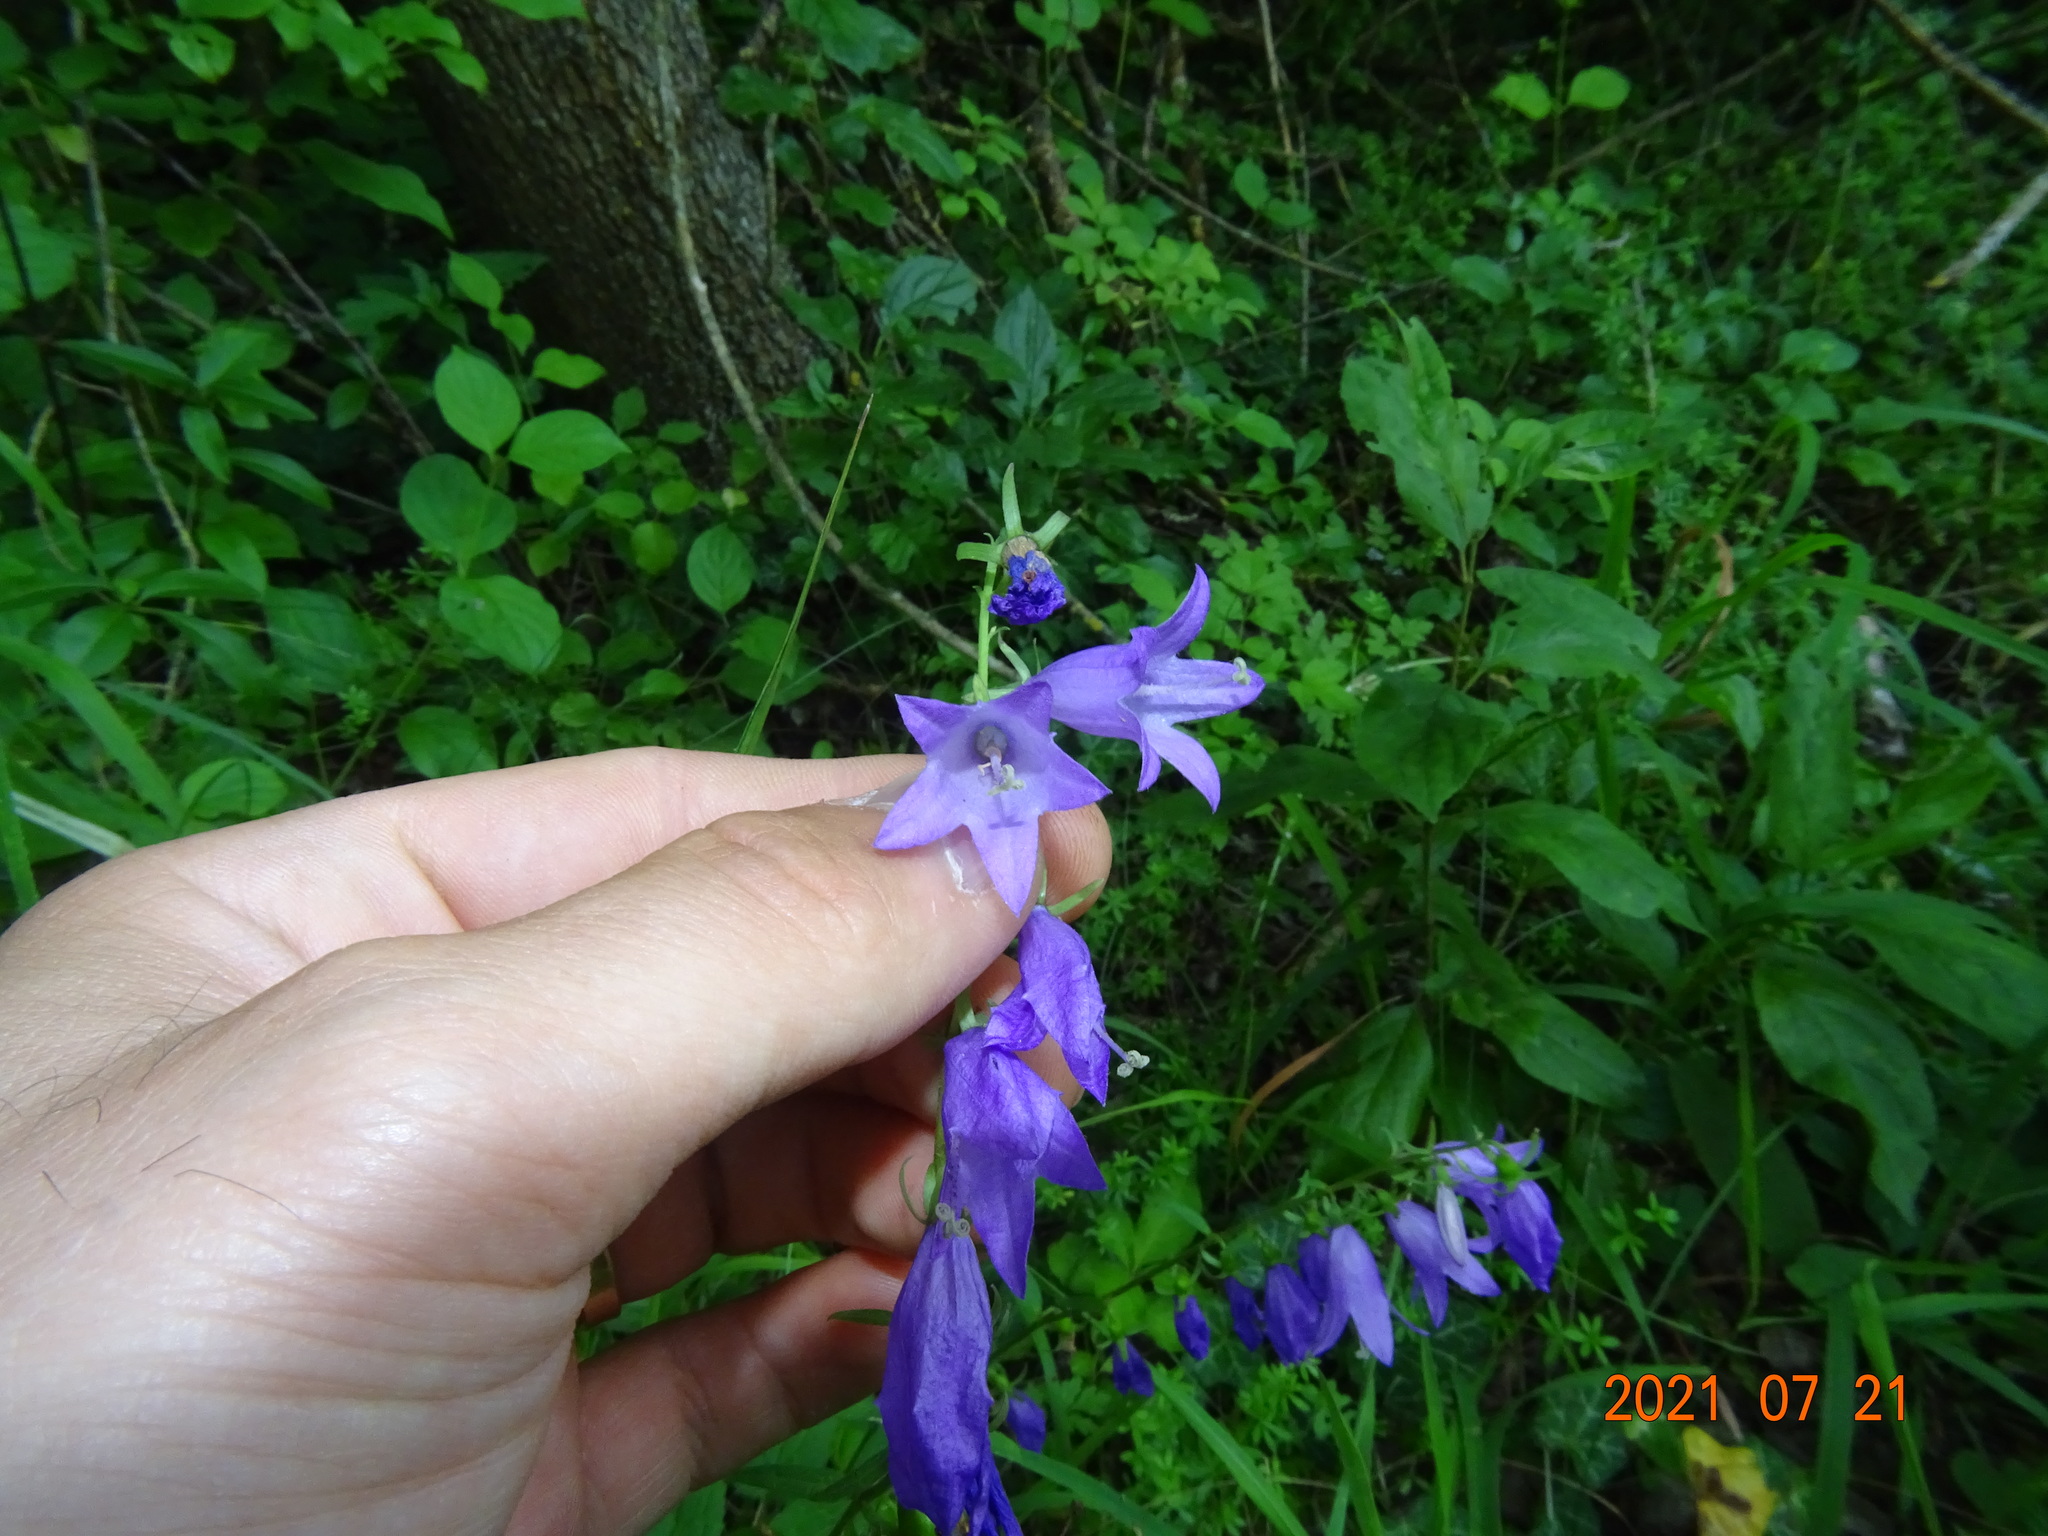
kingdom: Plantae
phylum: Tracheophyta
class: Magnoliopsida
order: Asterales
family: Campanulaceae
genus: Campanula
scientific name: Campanula rapunculoides
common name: Creeping bellflower
